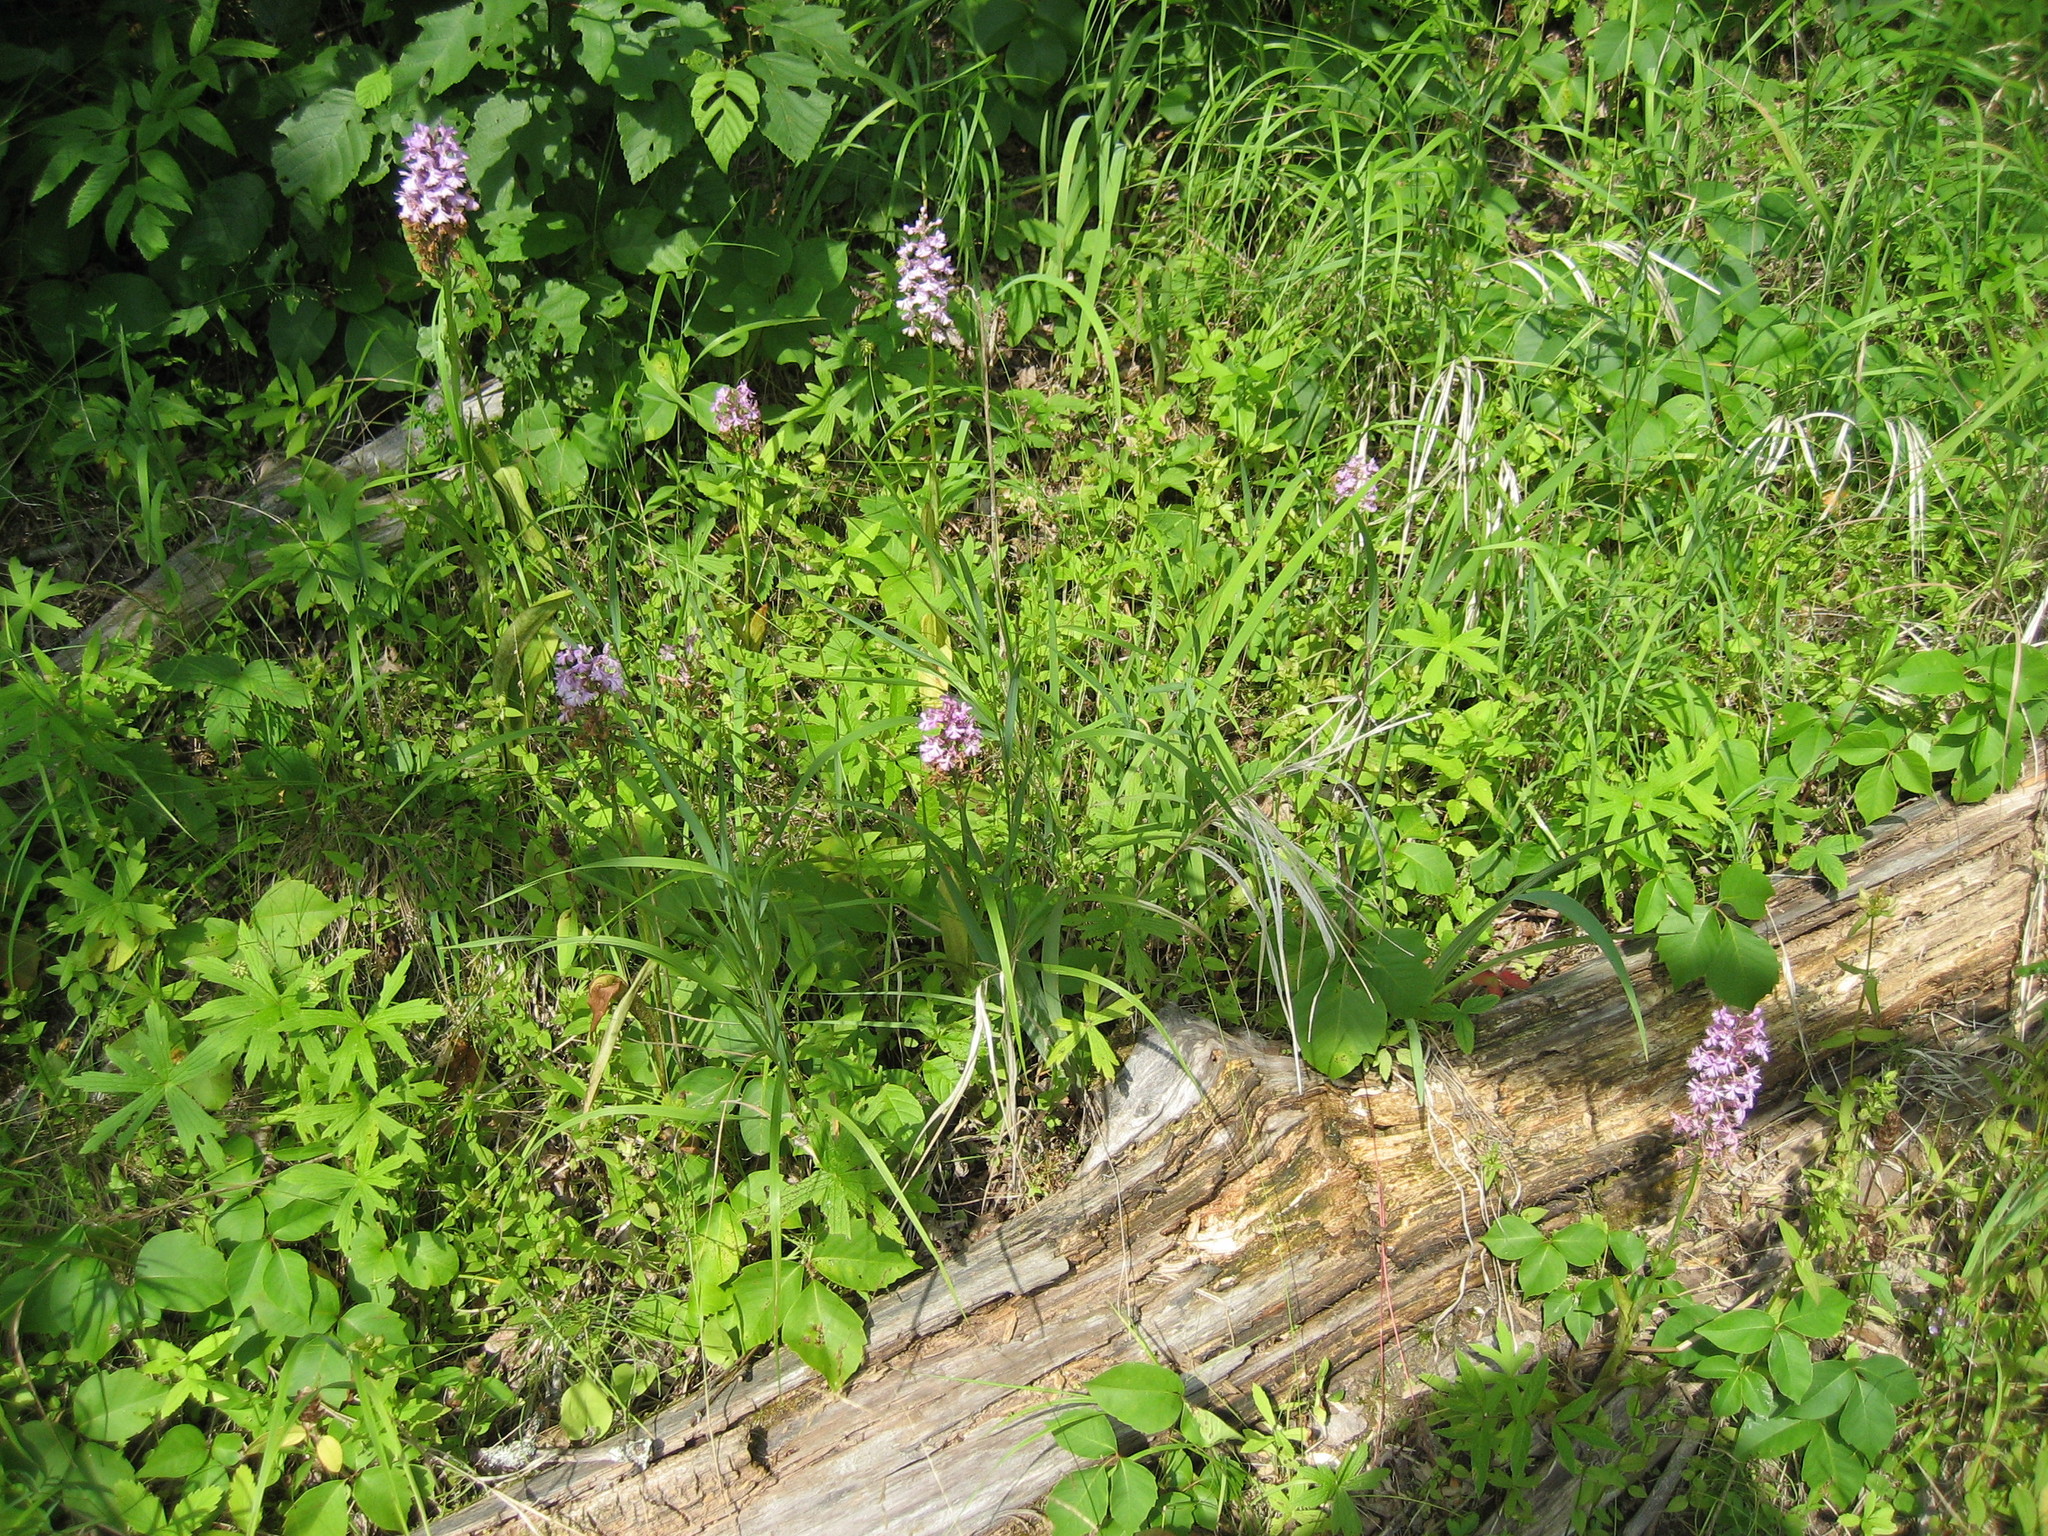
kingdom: Plantae
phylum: Tracheophyta
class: Liliopsida
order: Asparagales
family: Orchidaceae
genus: Platanthera
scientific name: Platanthera psycodes
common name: Lesser purple fringed orchid
